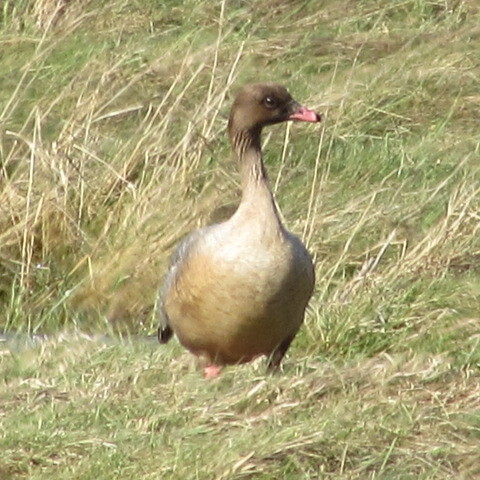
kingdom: Animalia
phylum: Chordata
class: Aves
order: Anseriformes
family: Anatidae
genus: Anser
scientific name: Anser brachyrhynchus
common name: Pink-footed goose
